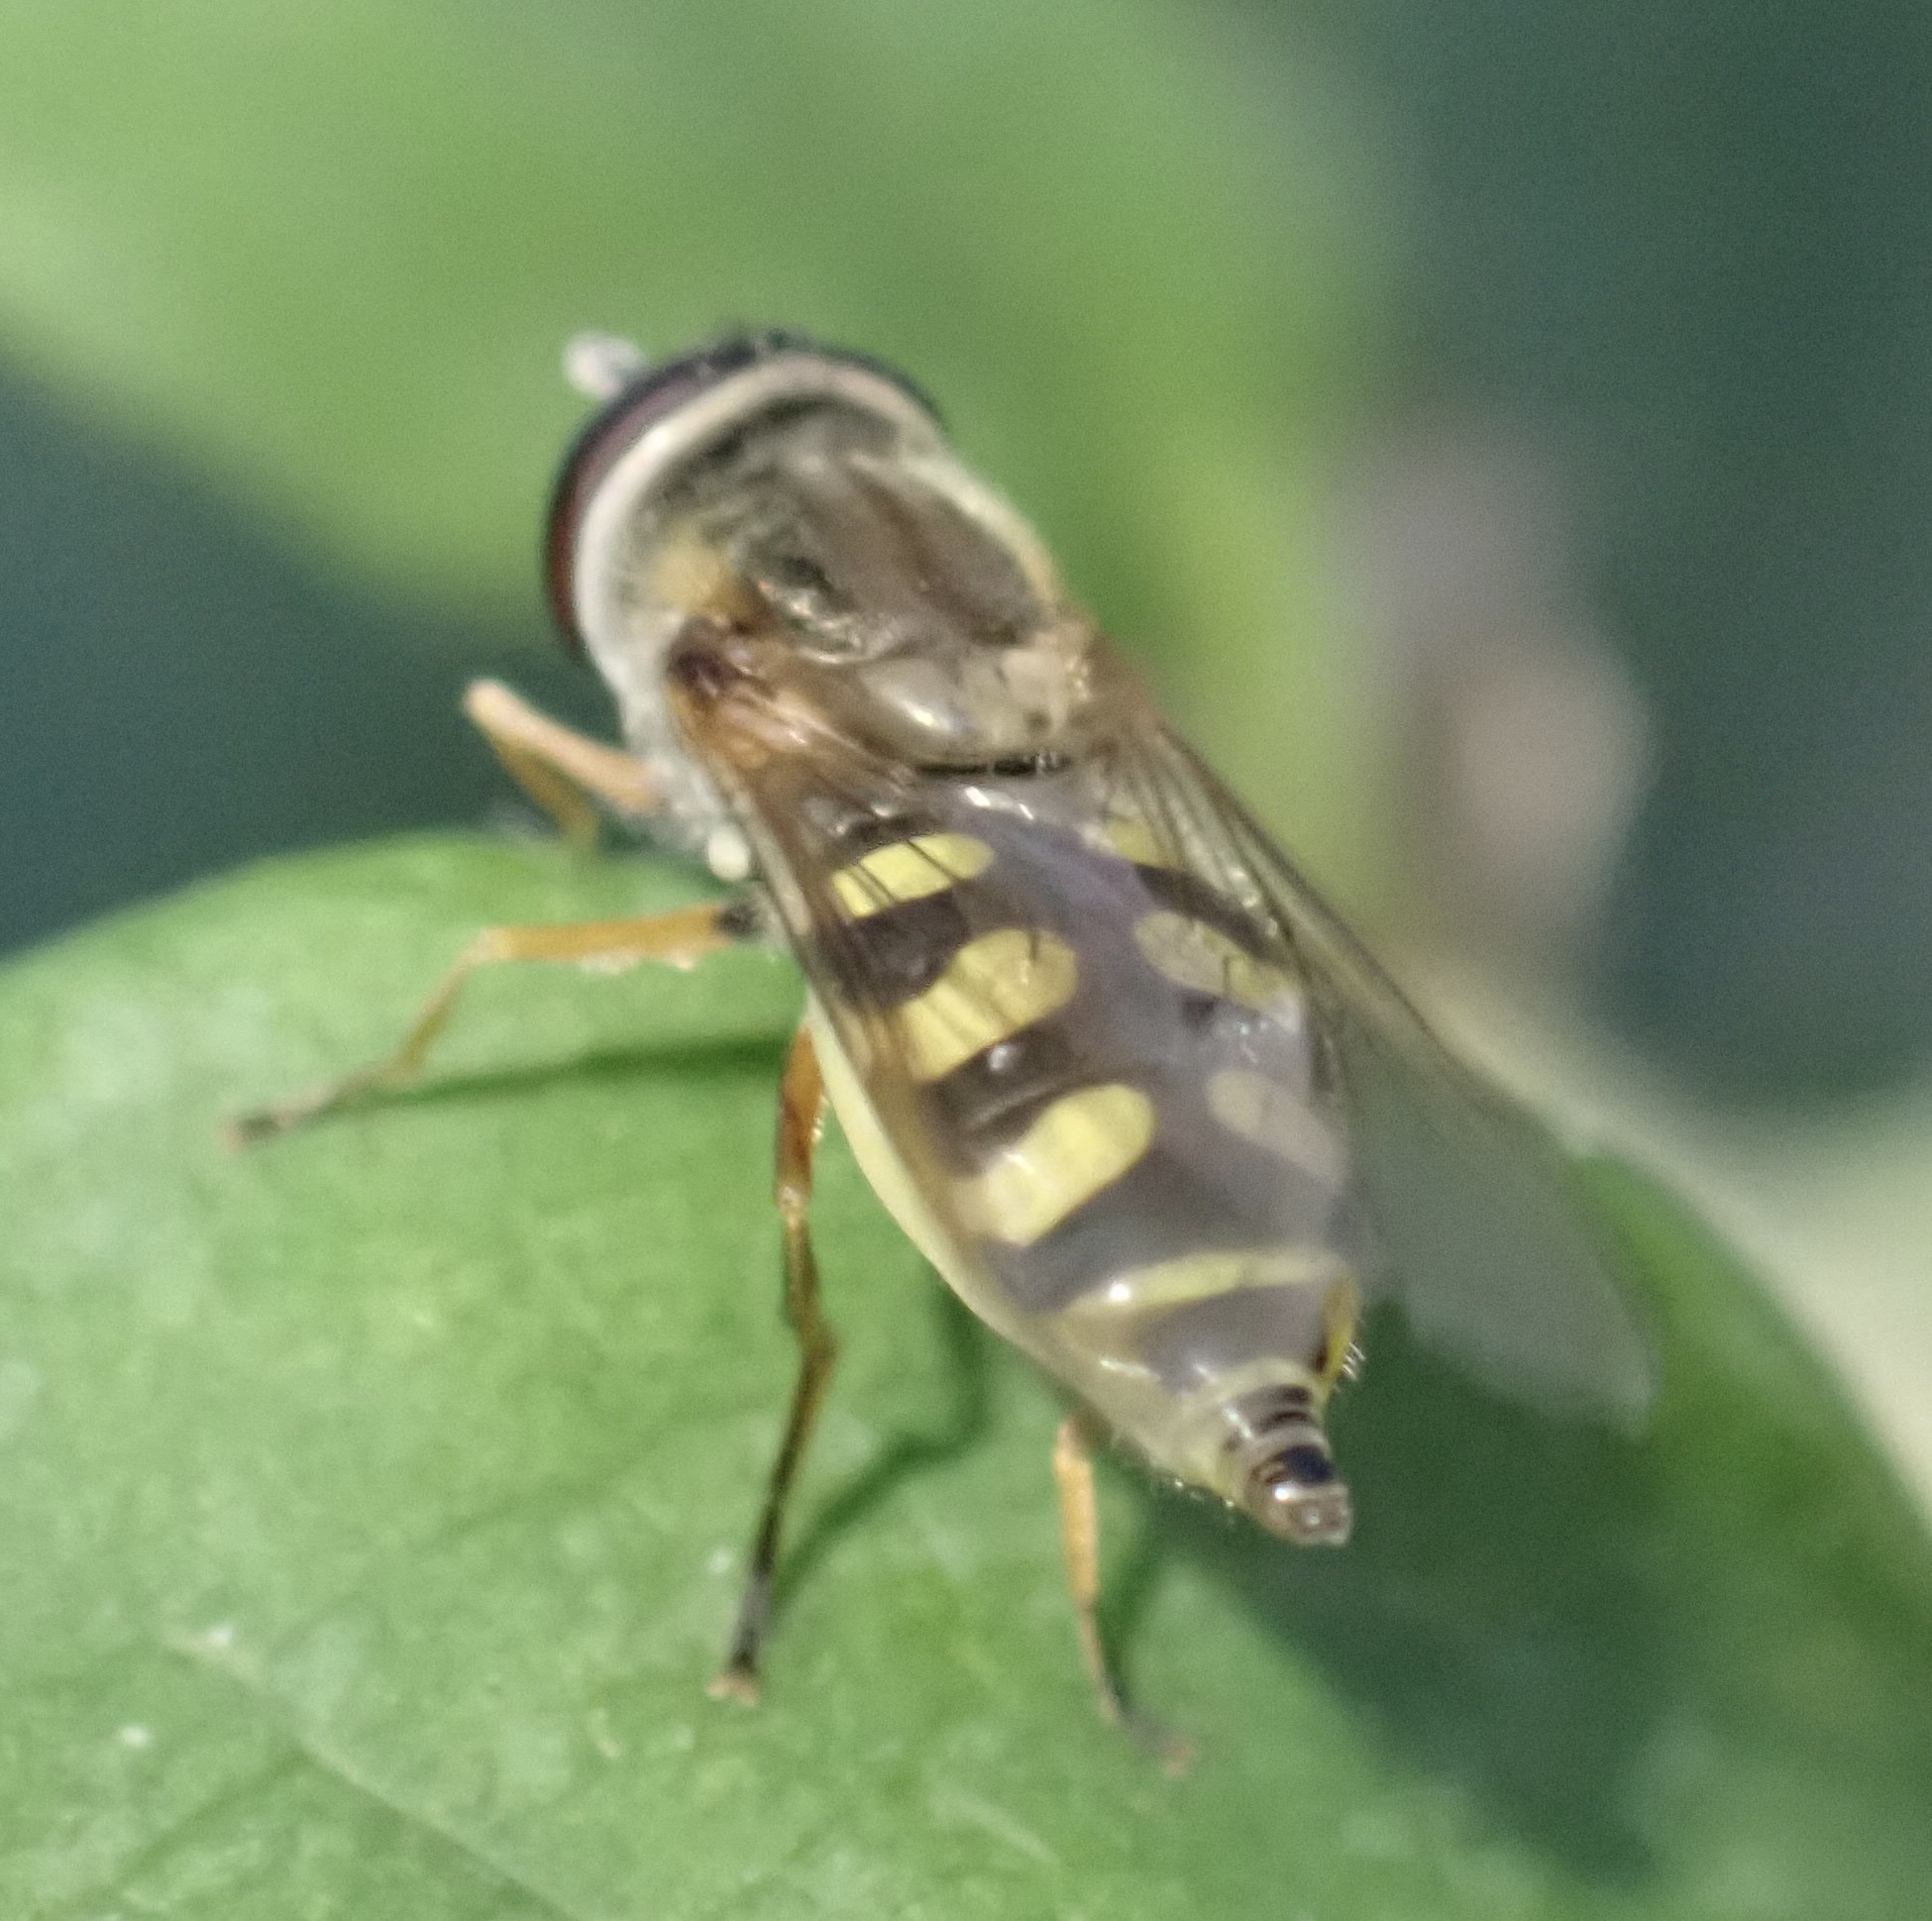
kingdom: Animalia
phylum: Arthropoda
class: Insecta
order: Diptera
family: Syrphidae
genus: Eupeodes
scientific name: Eupeodes corollae
